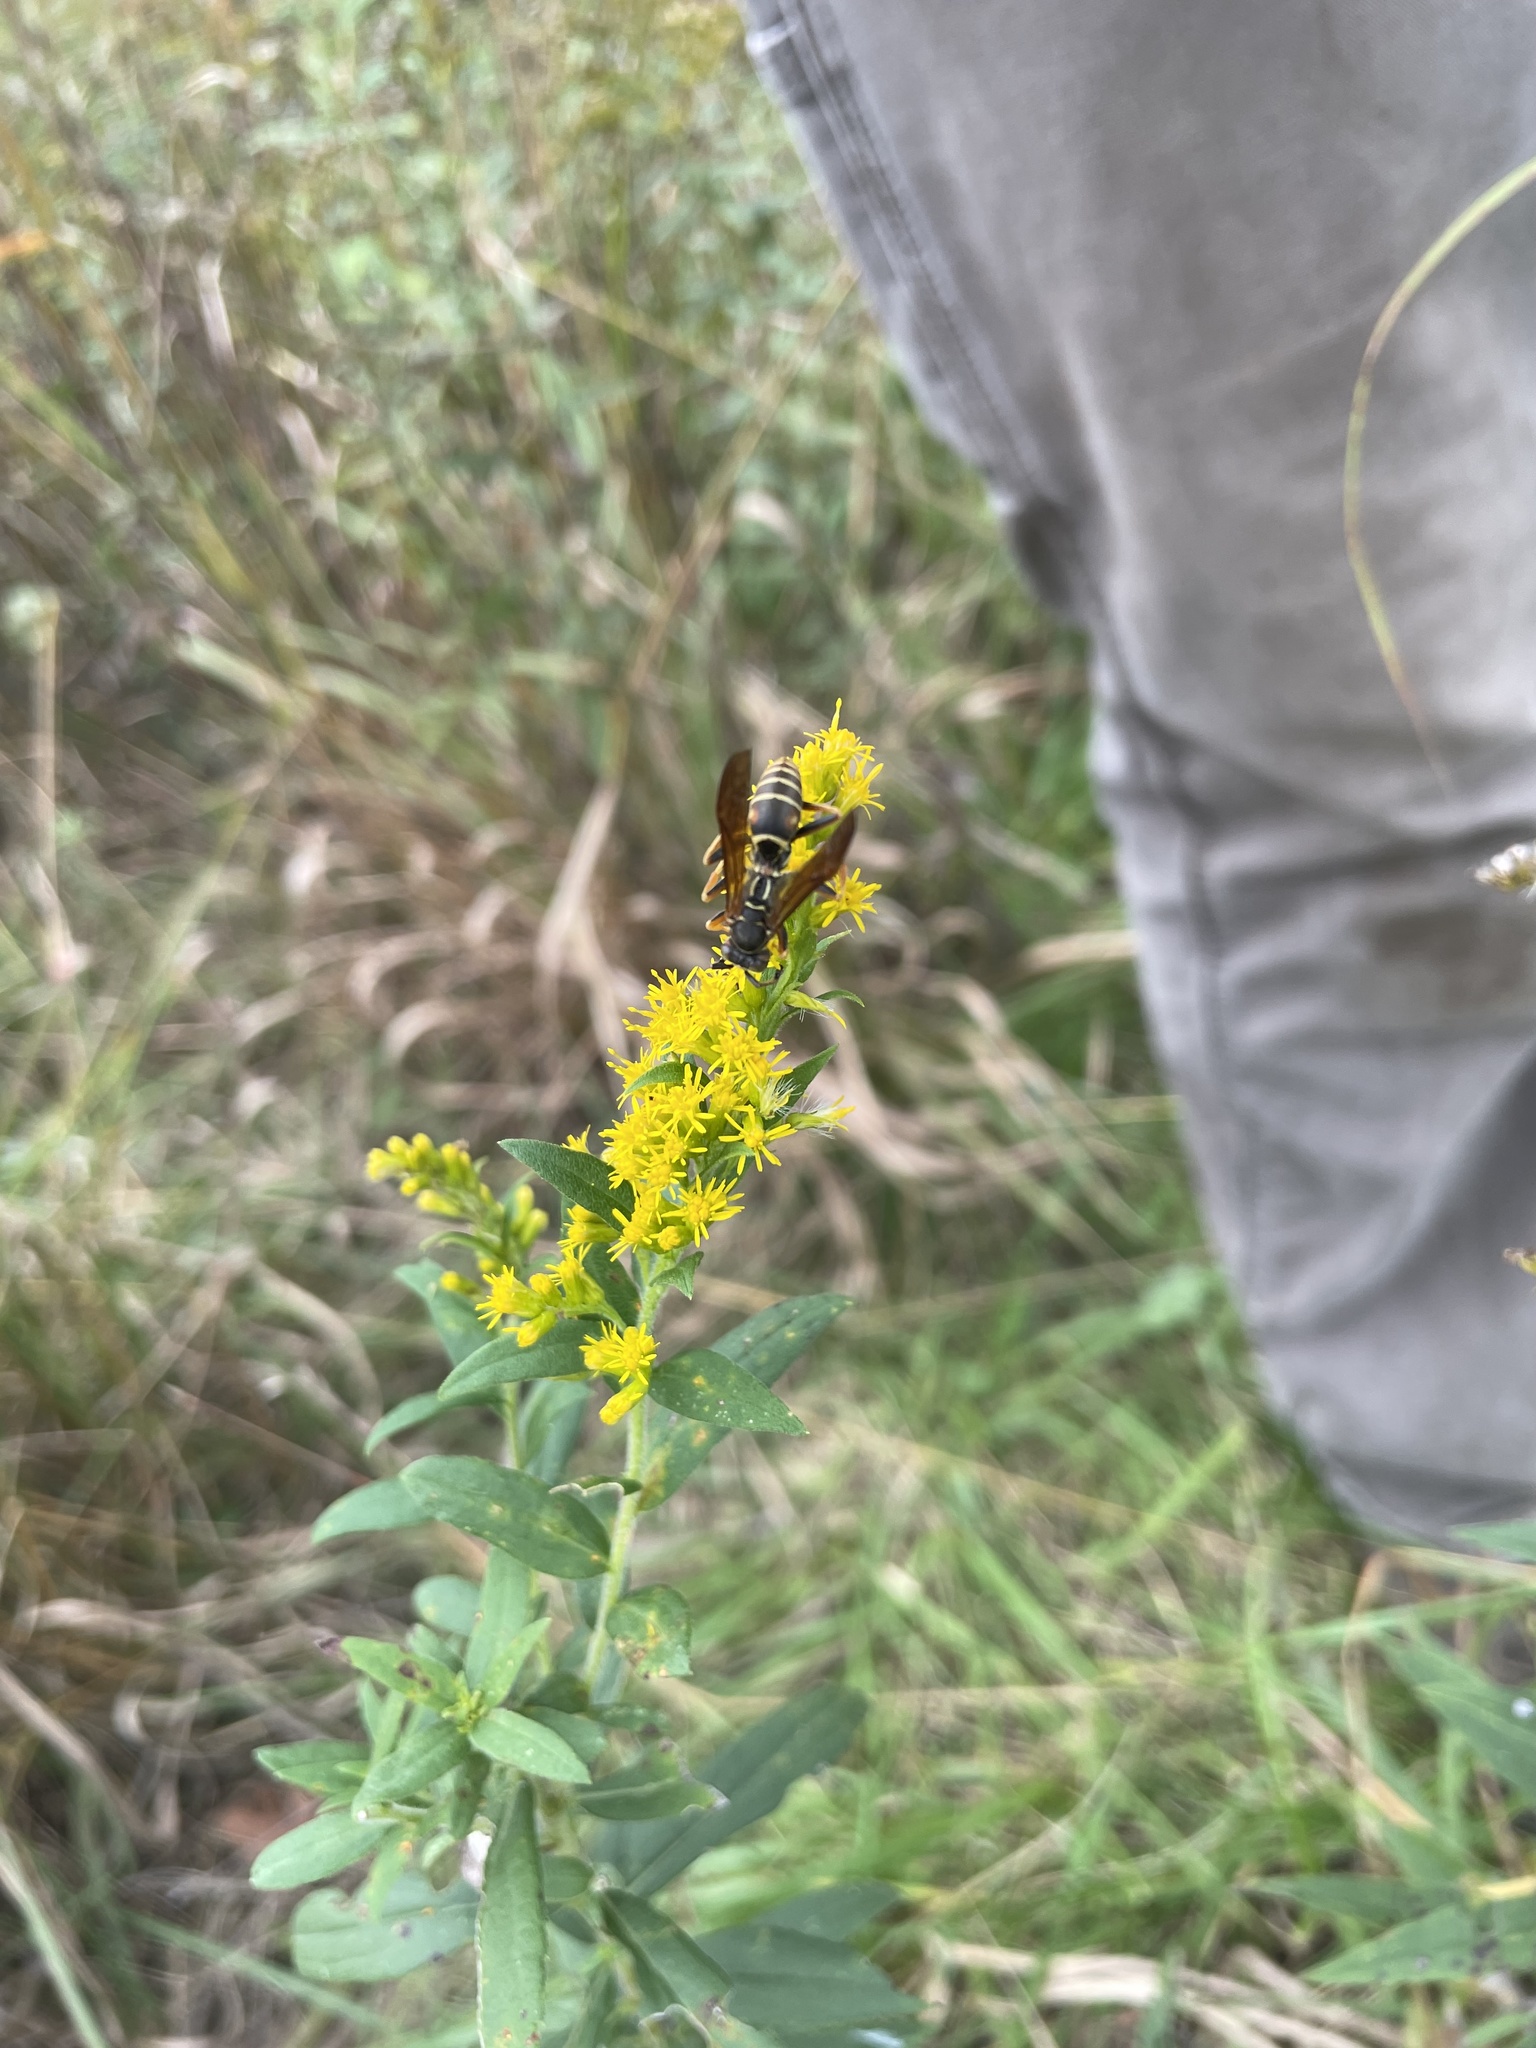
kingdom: Animalia
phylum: Arthropoda
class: Insecta
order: Hymenoptera
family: Eumenidae
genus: Polistes
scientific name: Polistes fuscatus
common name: Dark paper wasp
